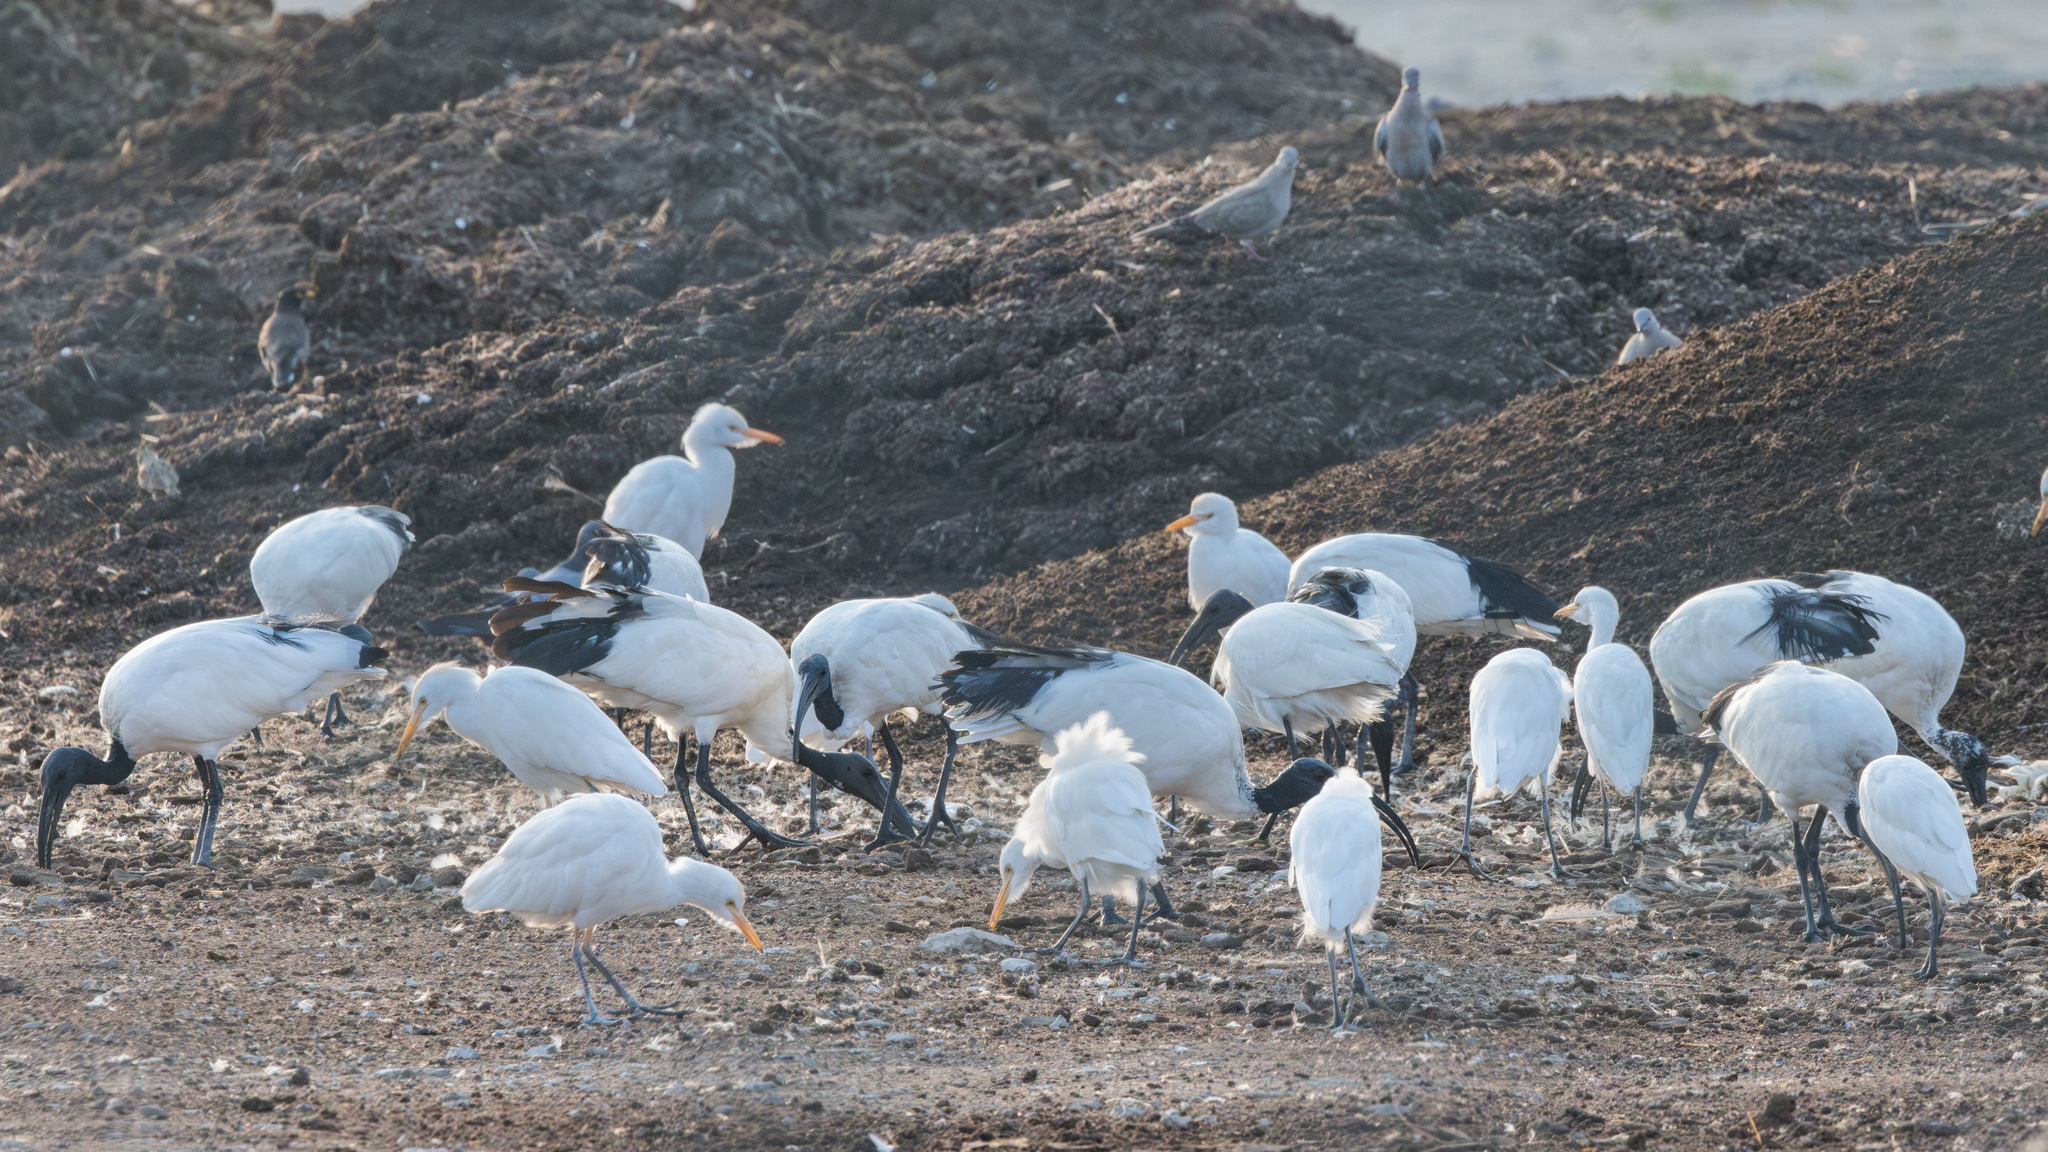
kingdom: Animalia
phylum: Chordata
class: Aves
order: Pelecaniformes
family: Ardeidae
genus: Bubulcus
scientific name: Bubulcus ibis
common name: Cattle egret
